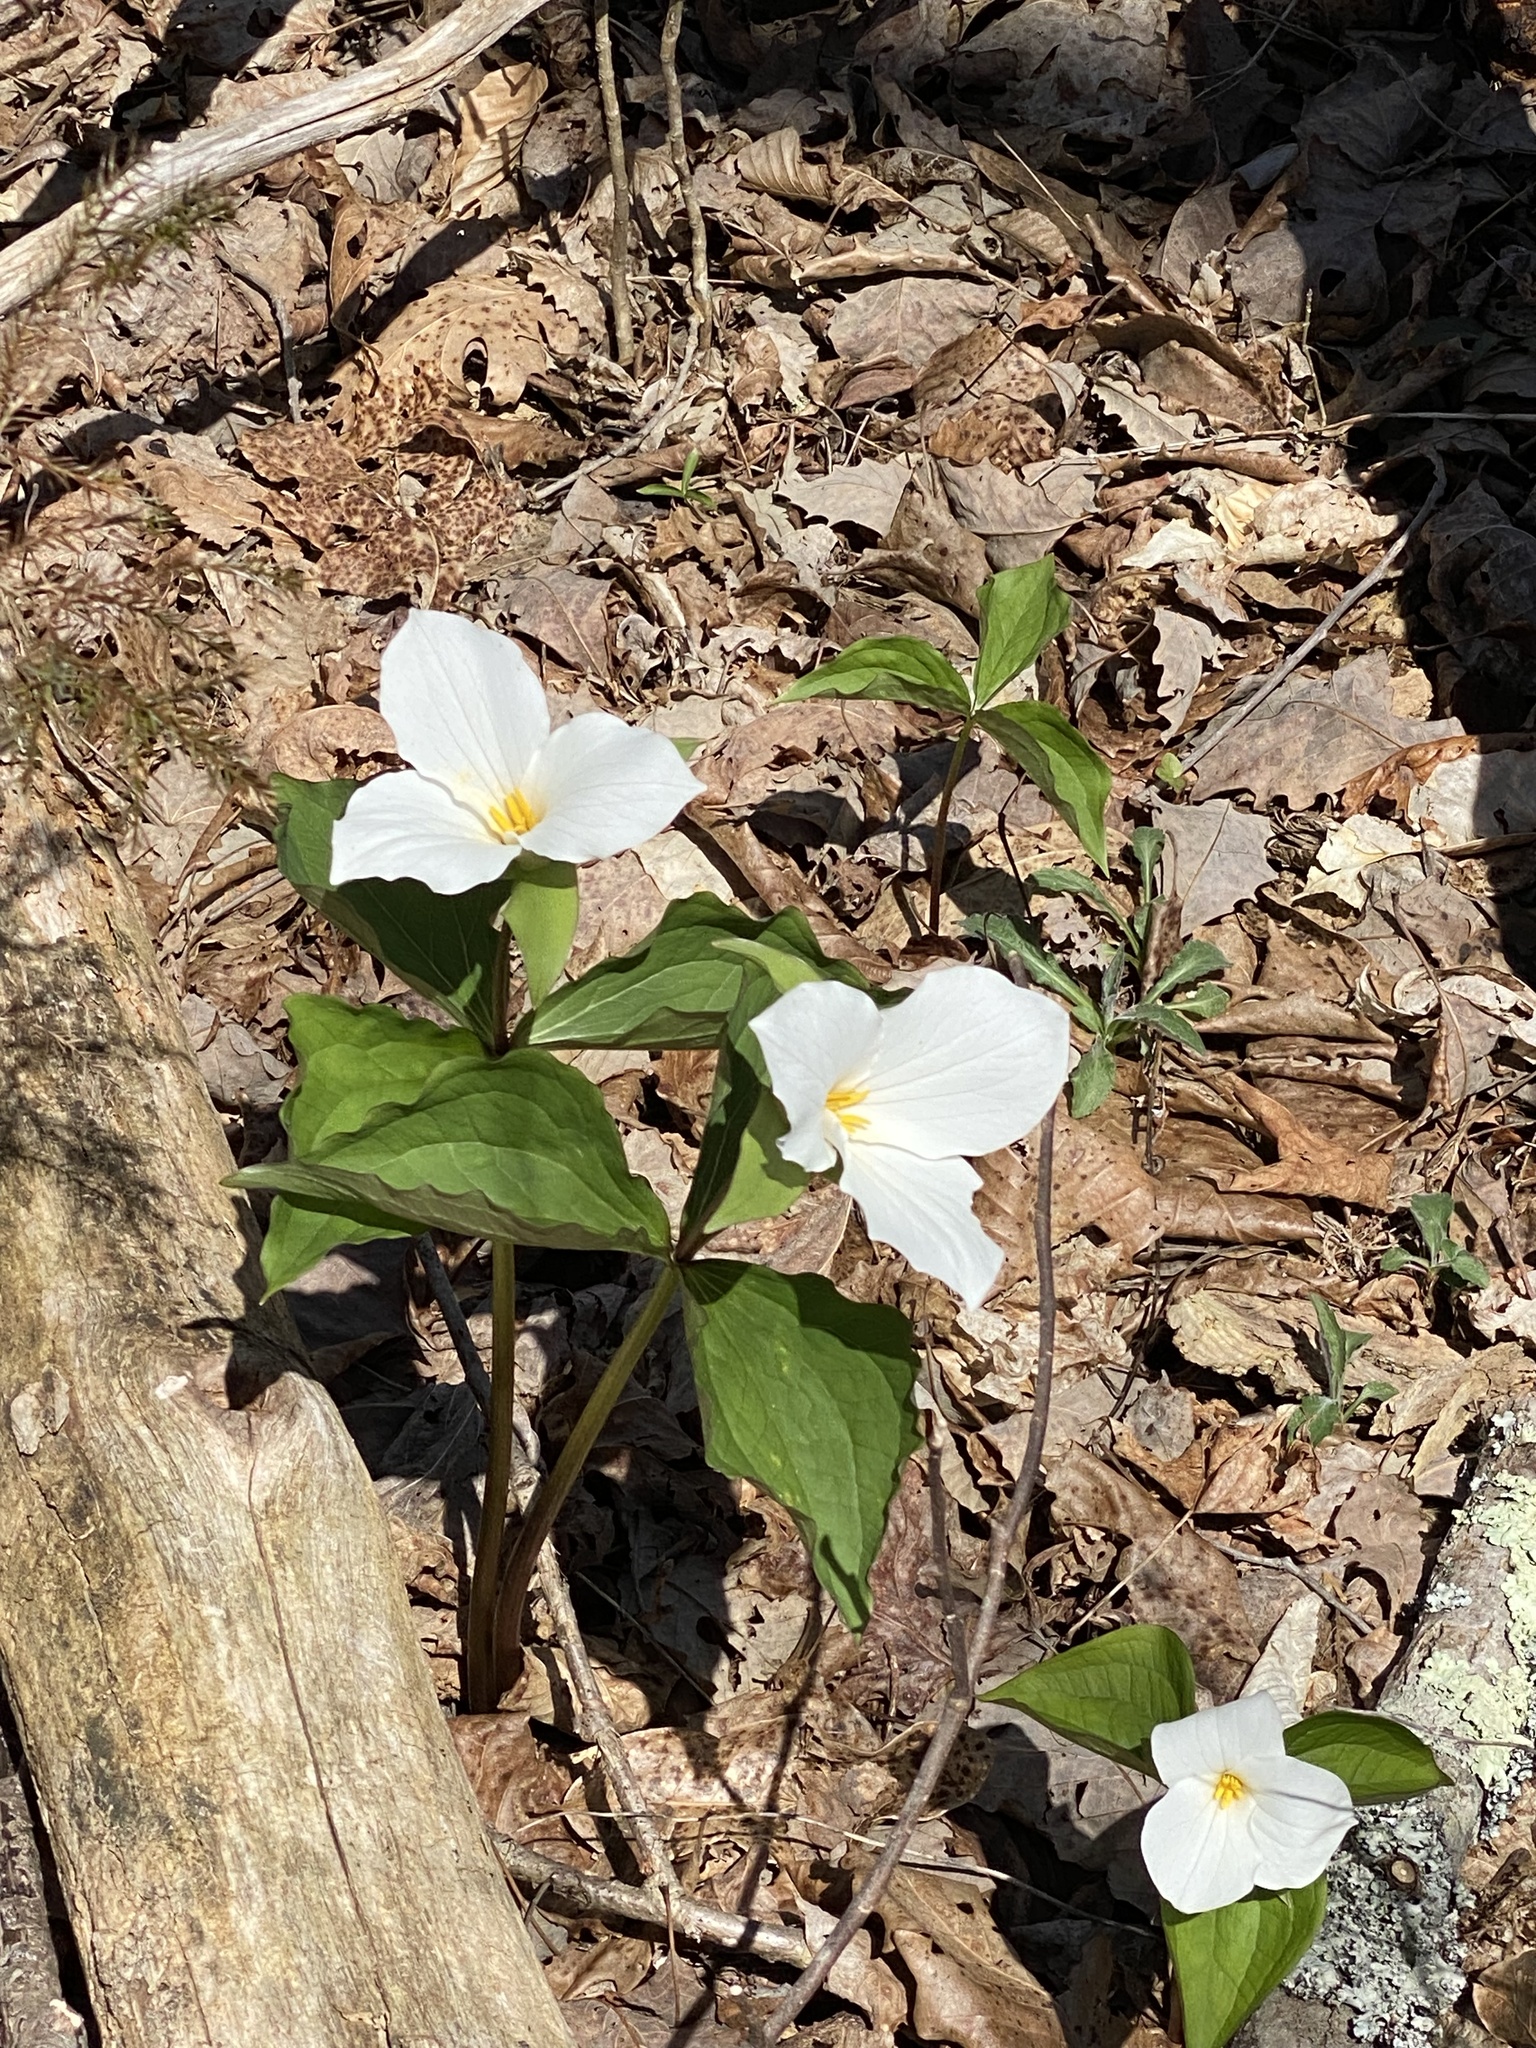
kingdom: Plantae
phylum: Tracheophyta
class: Liliopsida
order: Liliales
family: Melanthiaceae
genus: Trillium
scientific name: Trillium grandiflorum
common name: Great white trillium
